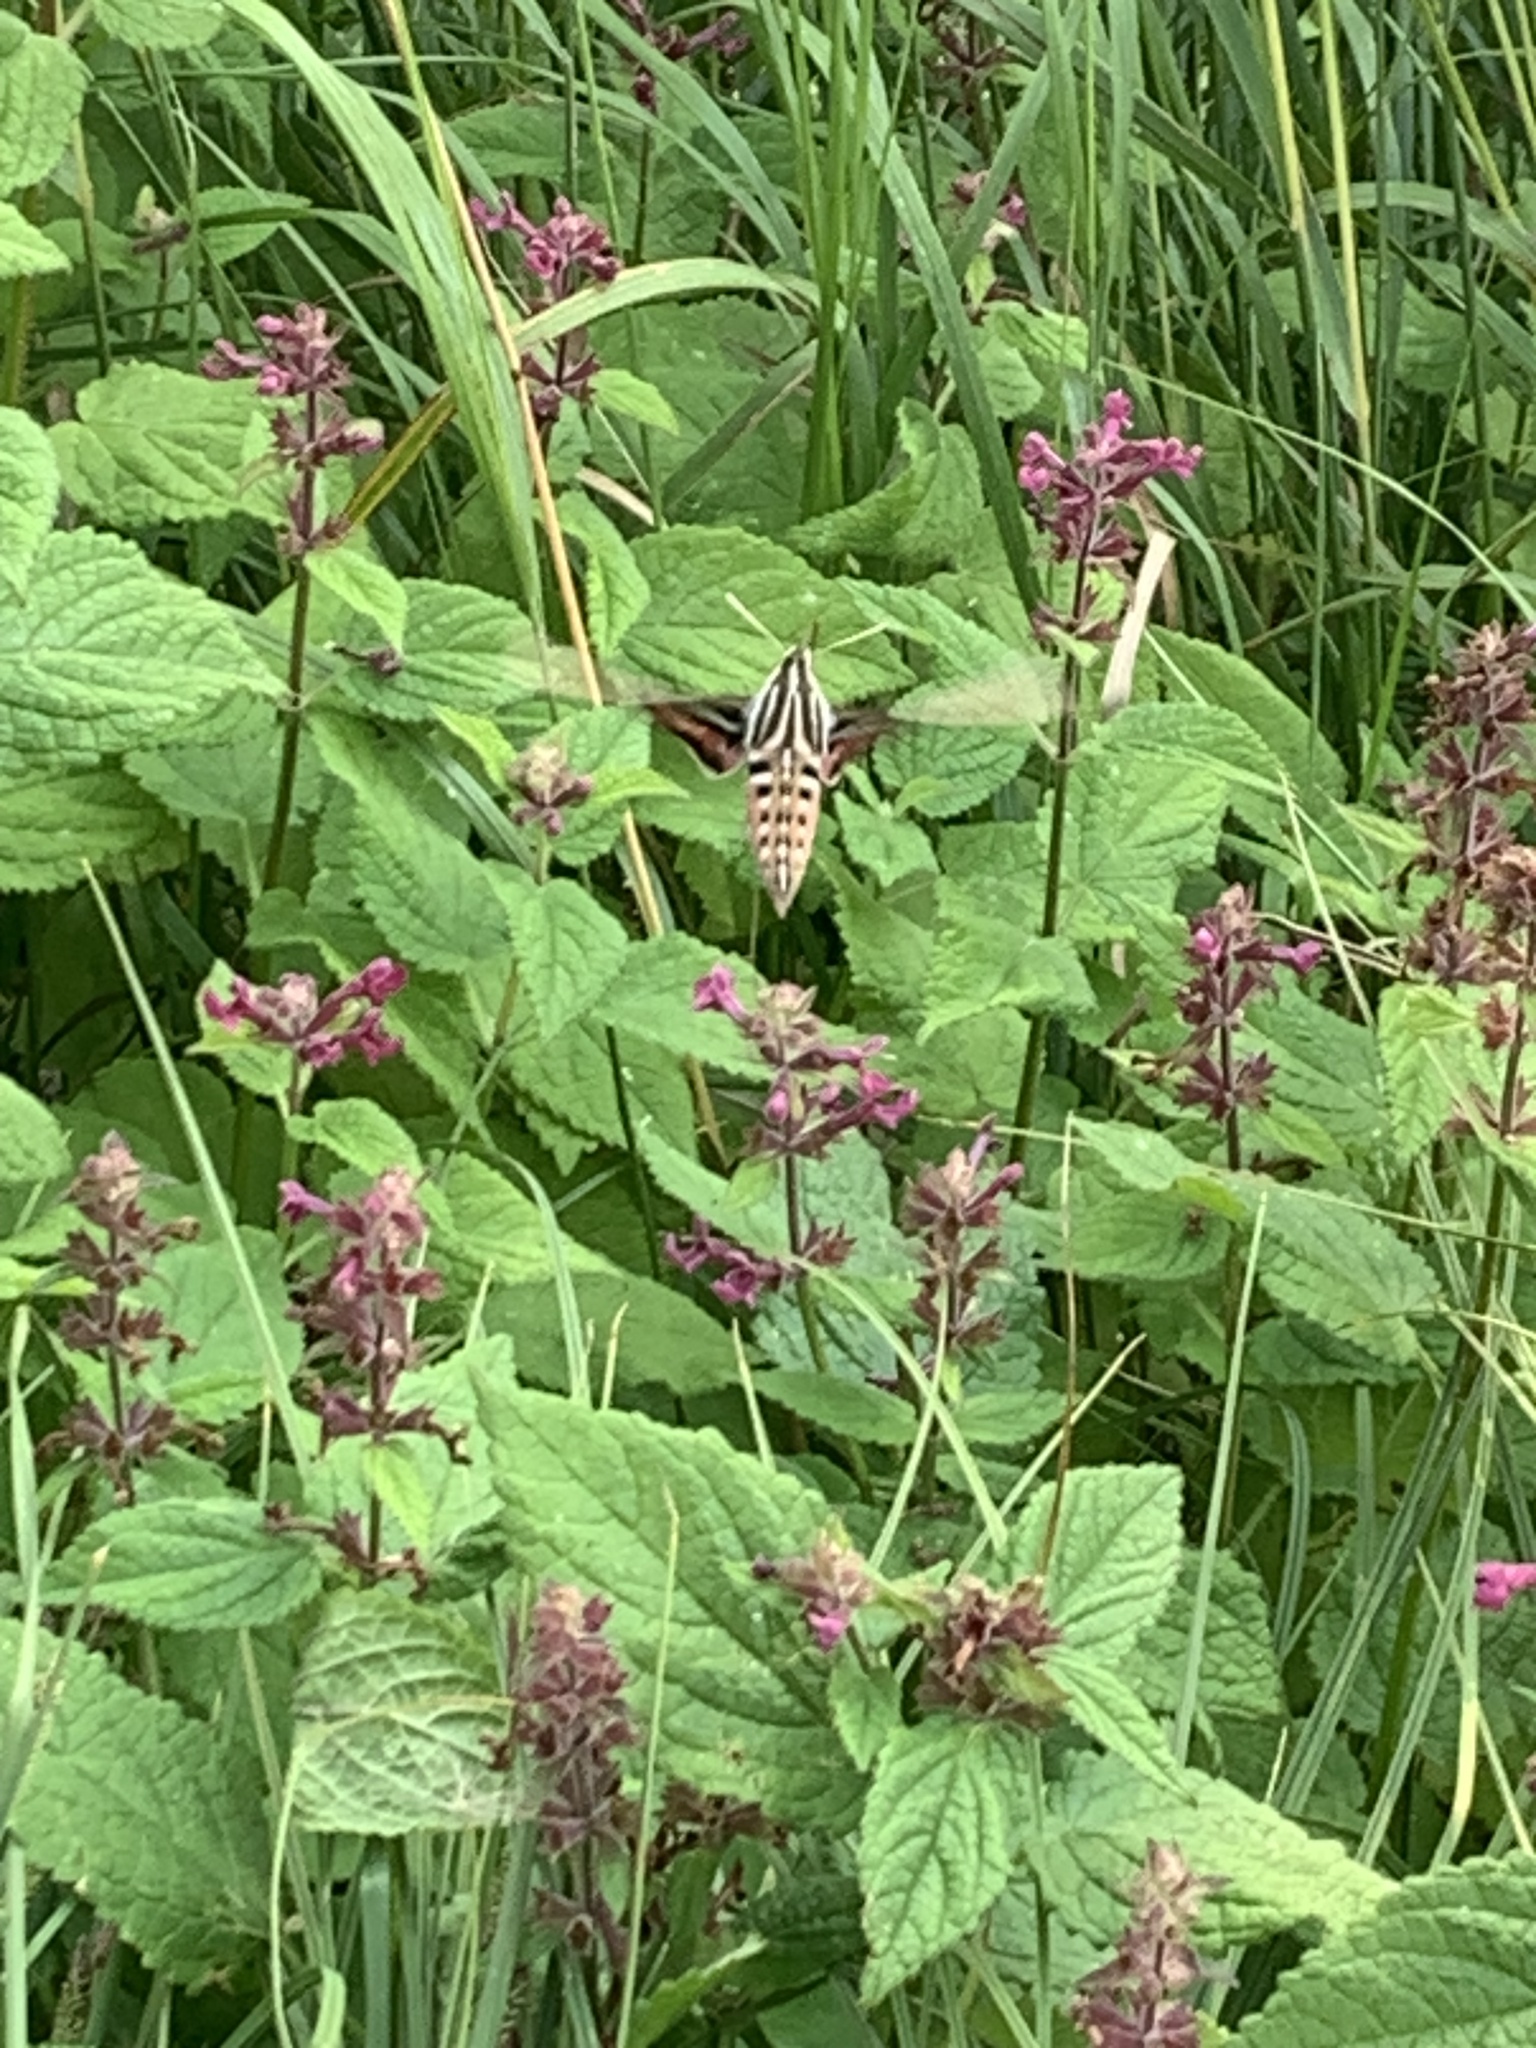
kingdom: Animalia
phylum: Arthropoda
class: Insecta
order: Lepidoptera
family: Sphingidae
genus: Hyles
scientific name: Hyles lineata
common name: White-lined sphinx
